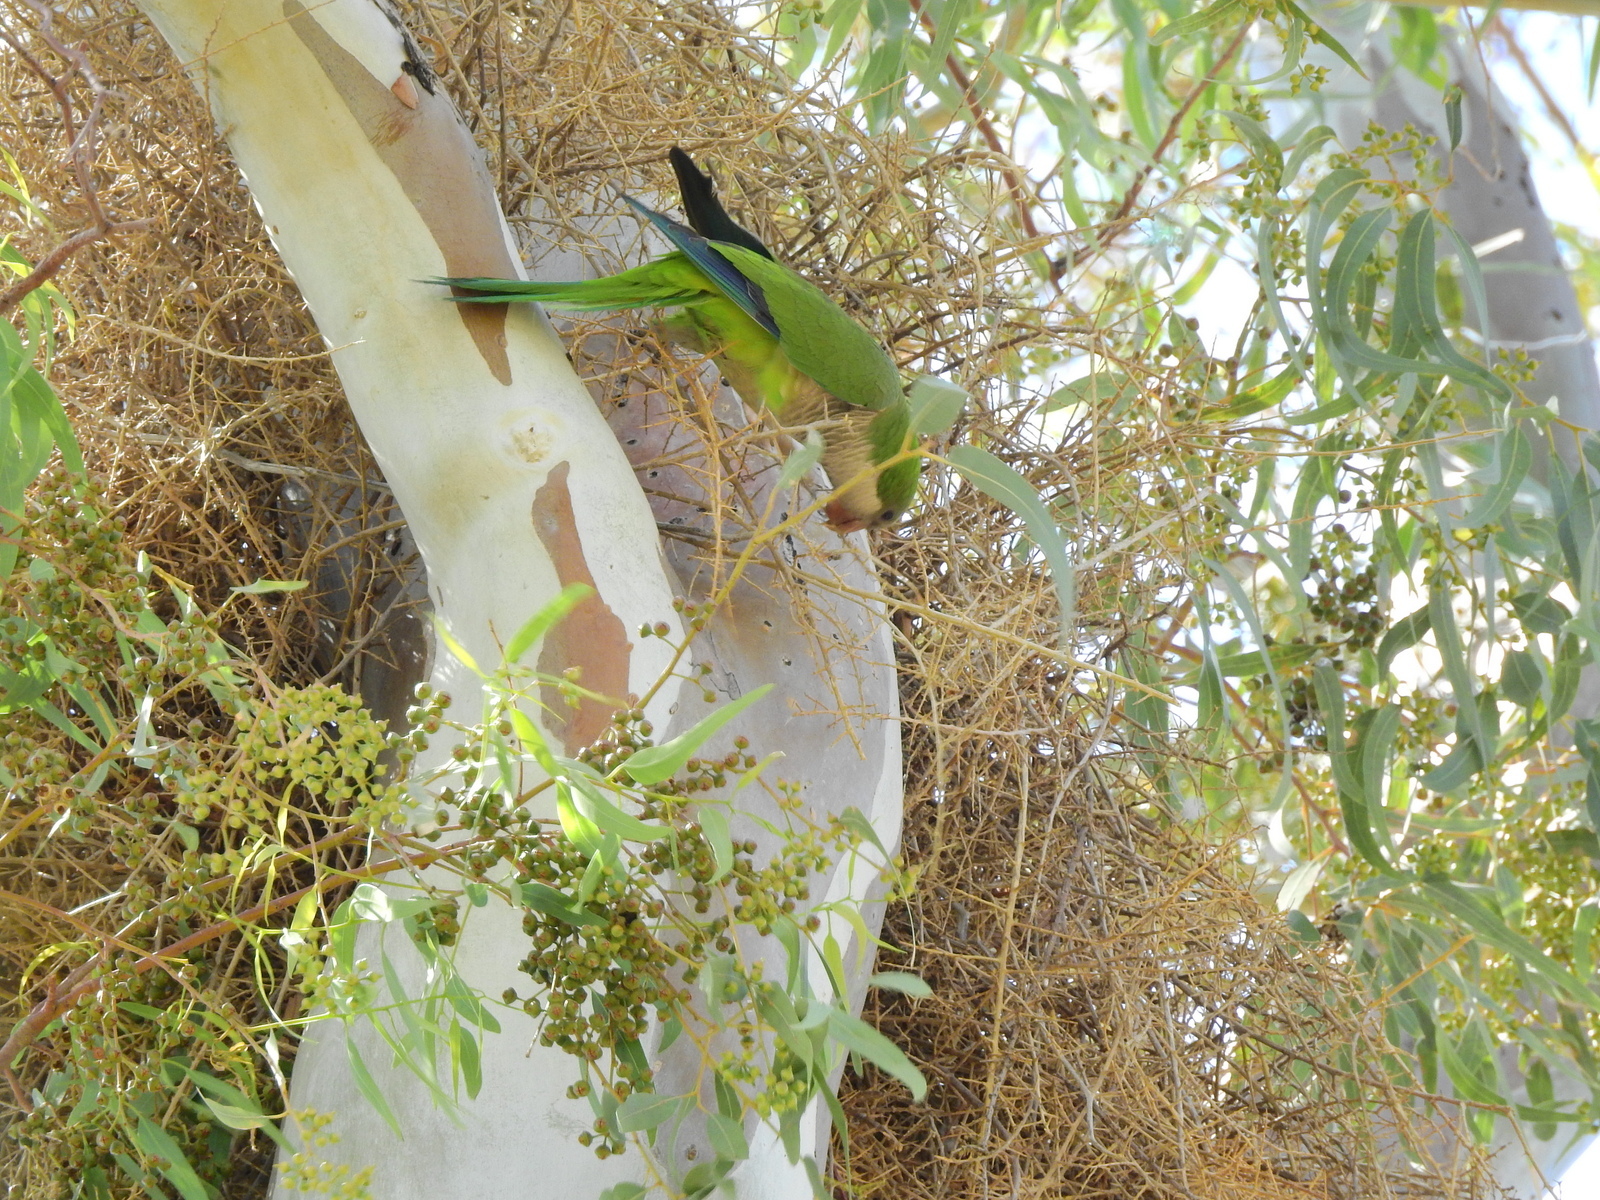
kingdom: Animalia
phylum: Chordata
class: Aves
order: Psittaciformes
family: Psittacidae
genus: Myiopsitta
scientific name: Myiopsitta monachus
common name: Monk parakeet
